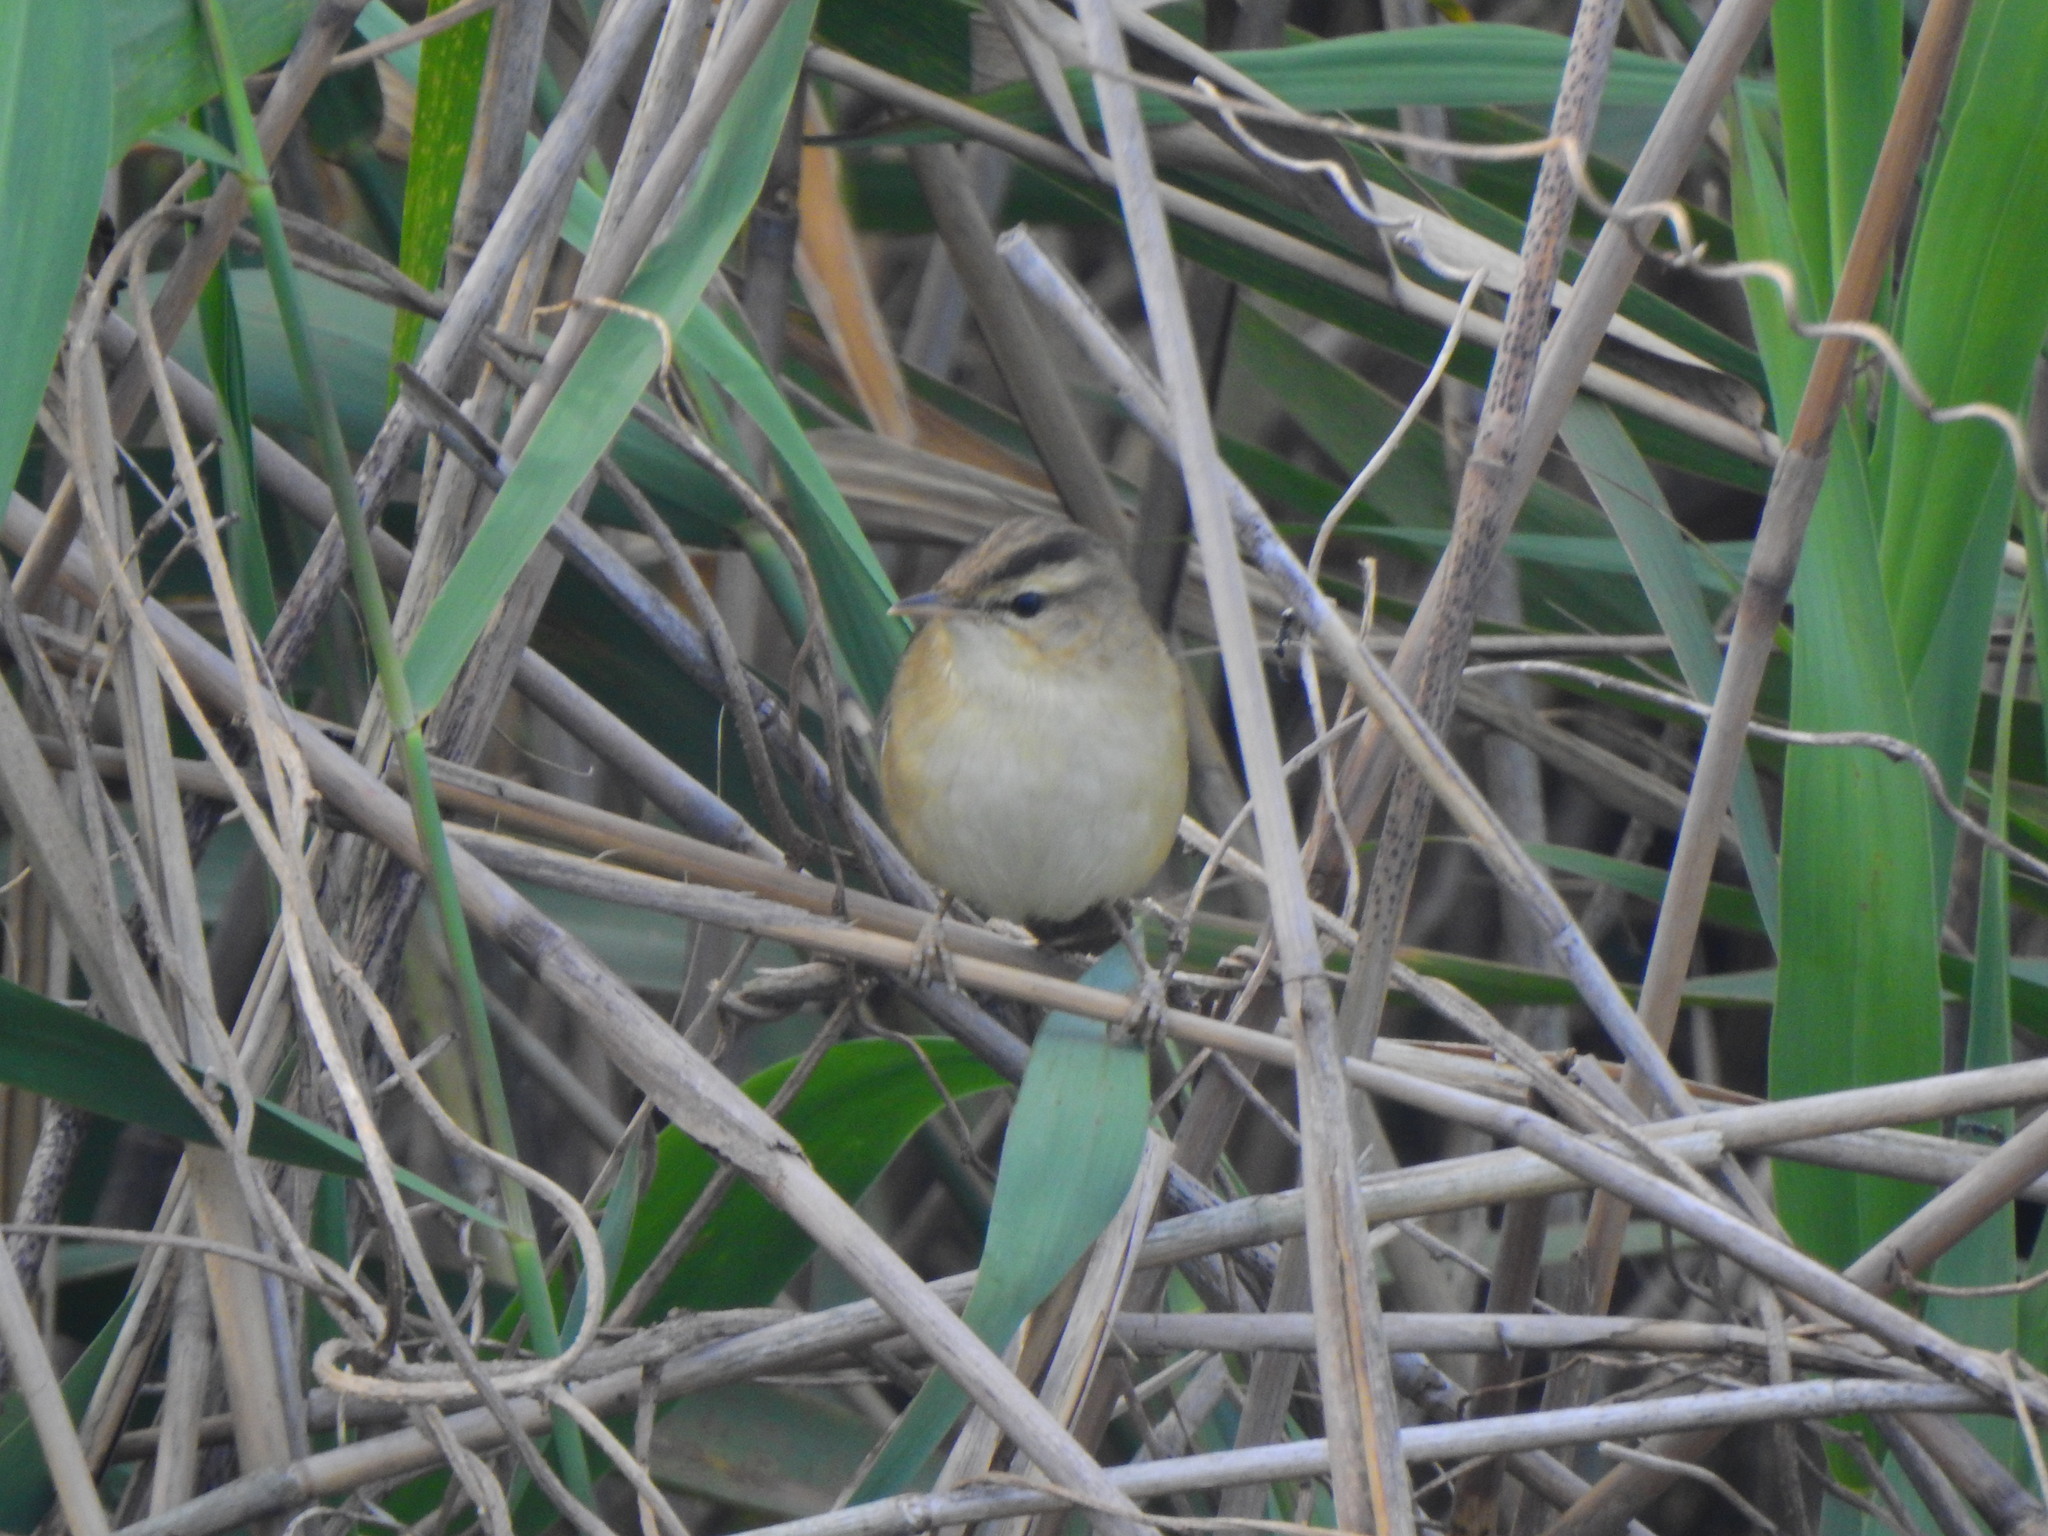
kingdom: Animalia
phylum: Chordata
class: Aves
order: Passeriformes
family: Acrocephalidae
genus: Acrocephalus
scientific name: Acrocephalus bistrigiceps
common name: Black-browed reed warbler
